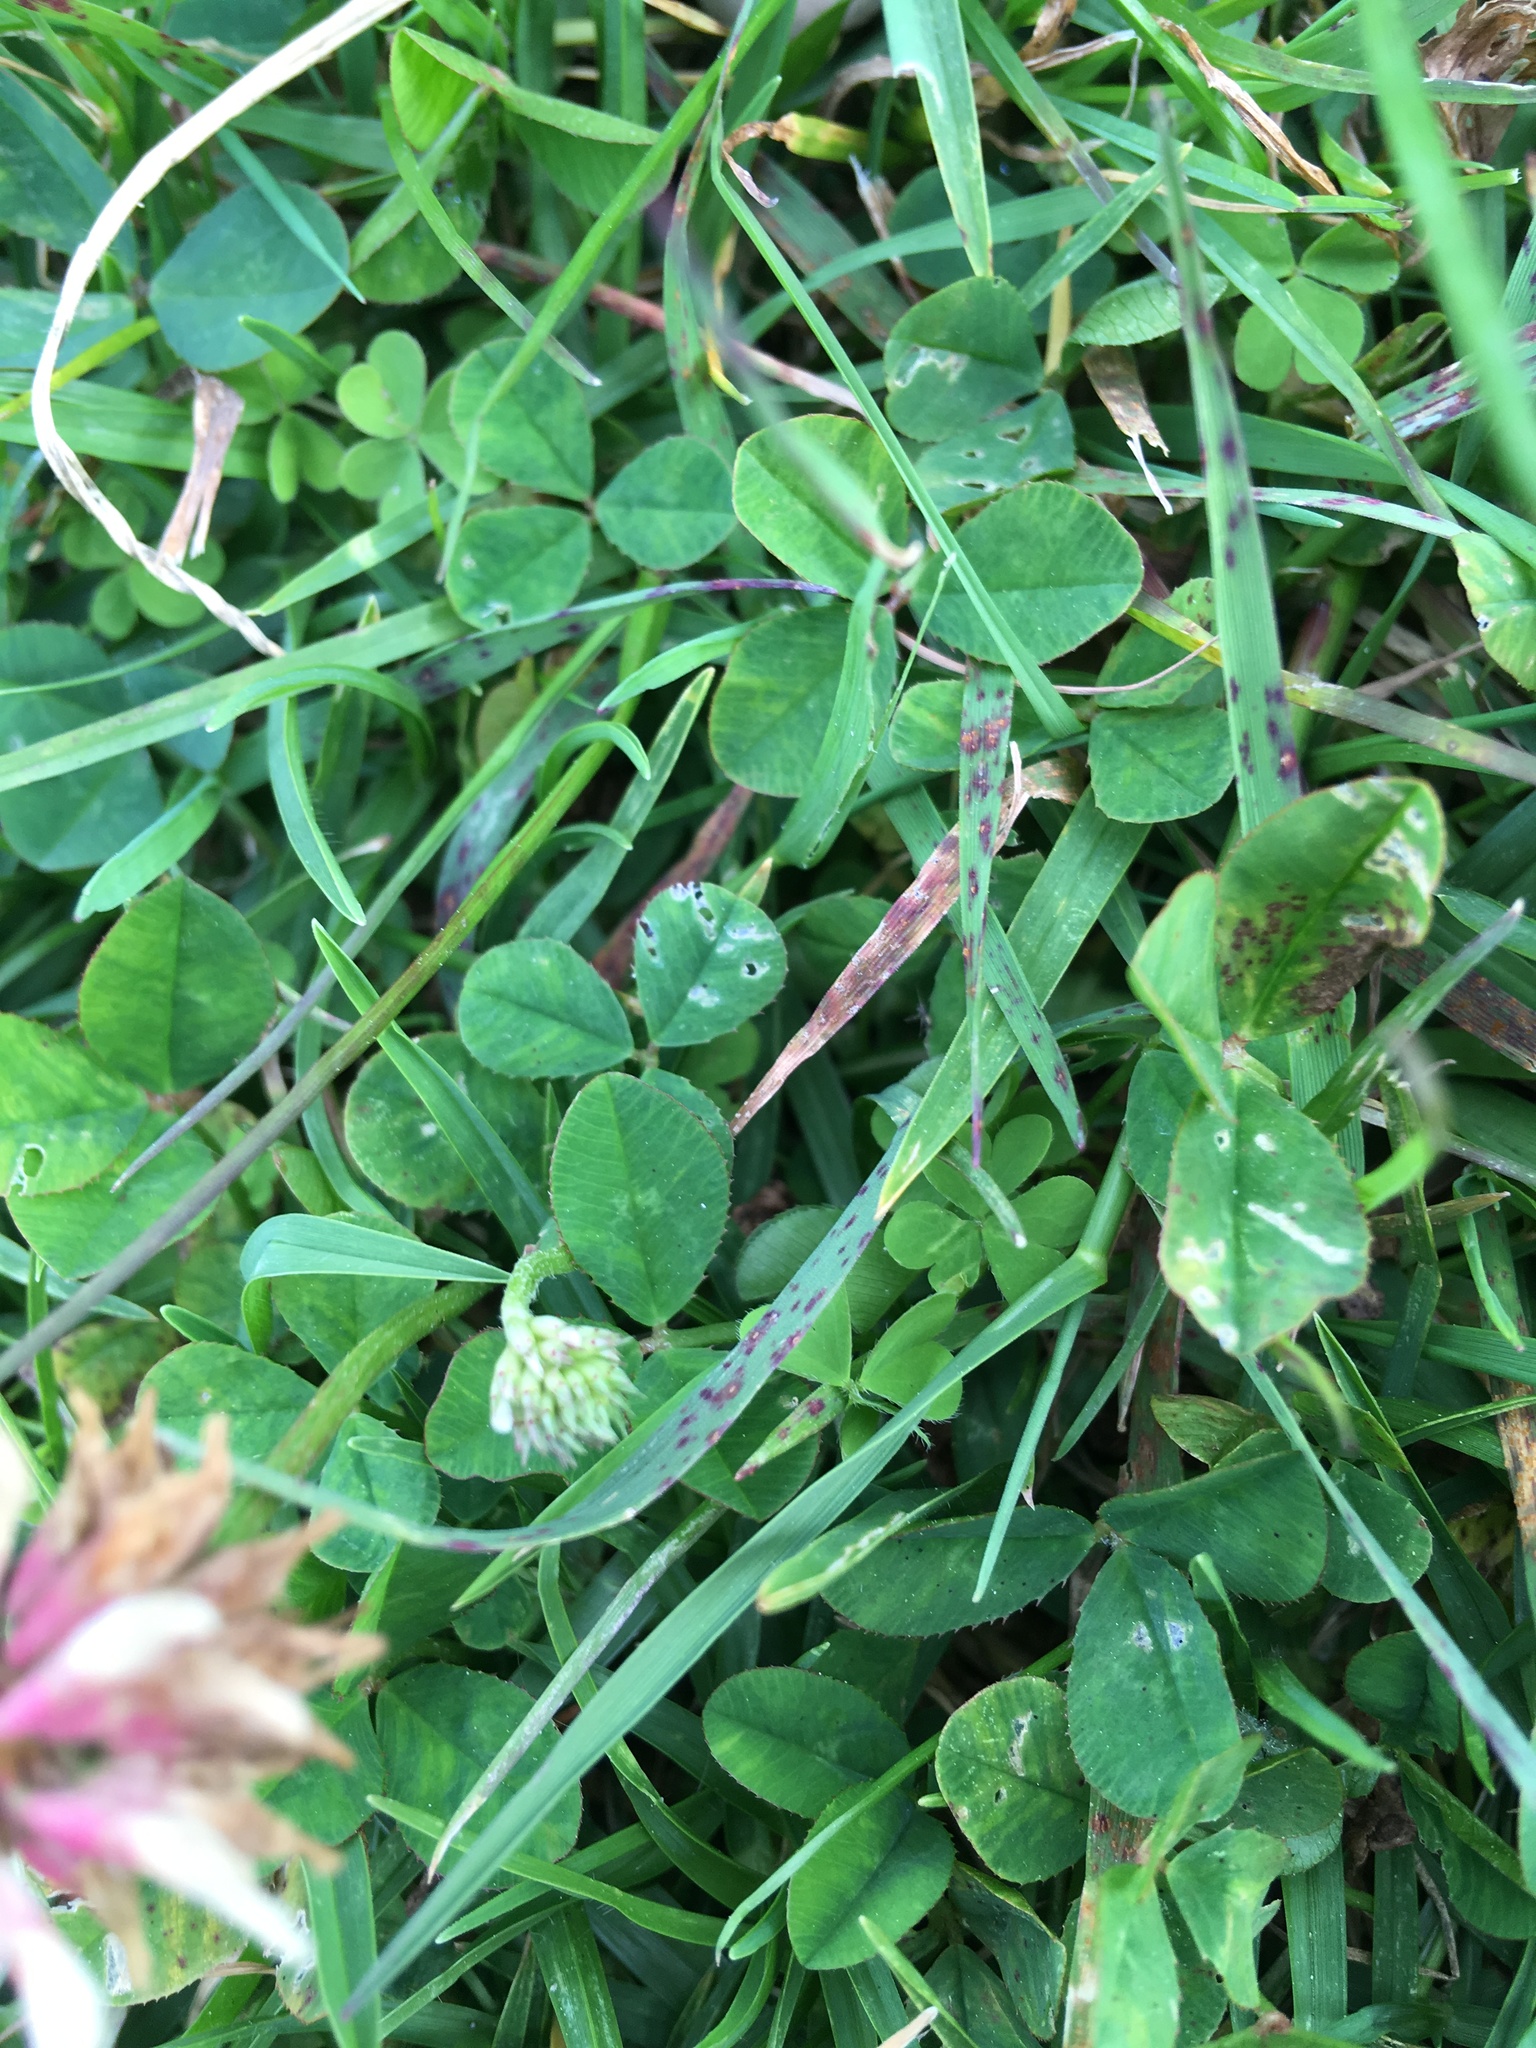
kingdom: Plantae
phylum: Tracheophyta
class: Magnoliopsida
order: Fabales
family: Fabaceae
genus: Trifolium
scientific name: Trifolium repens
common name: White clover
